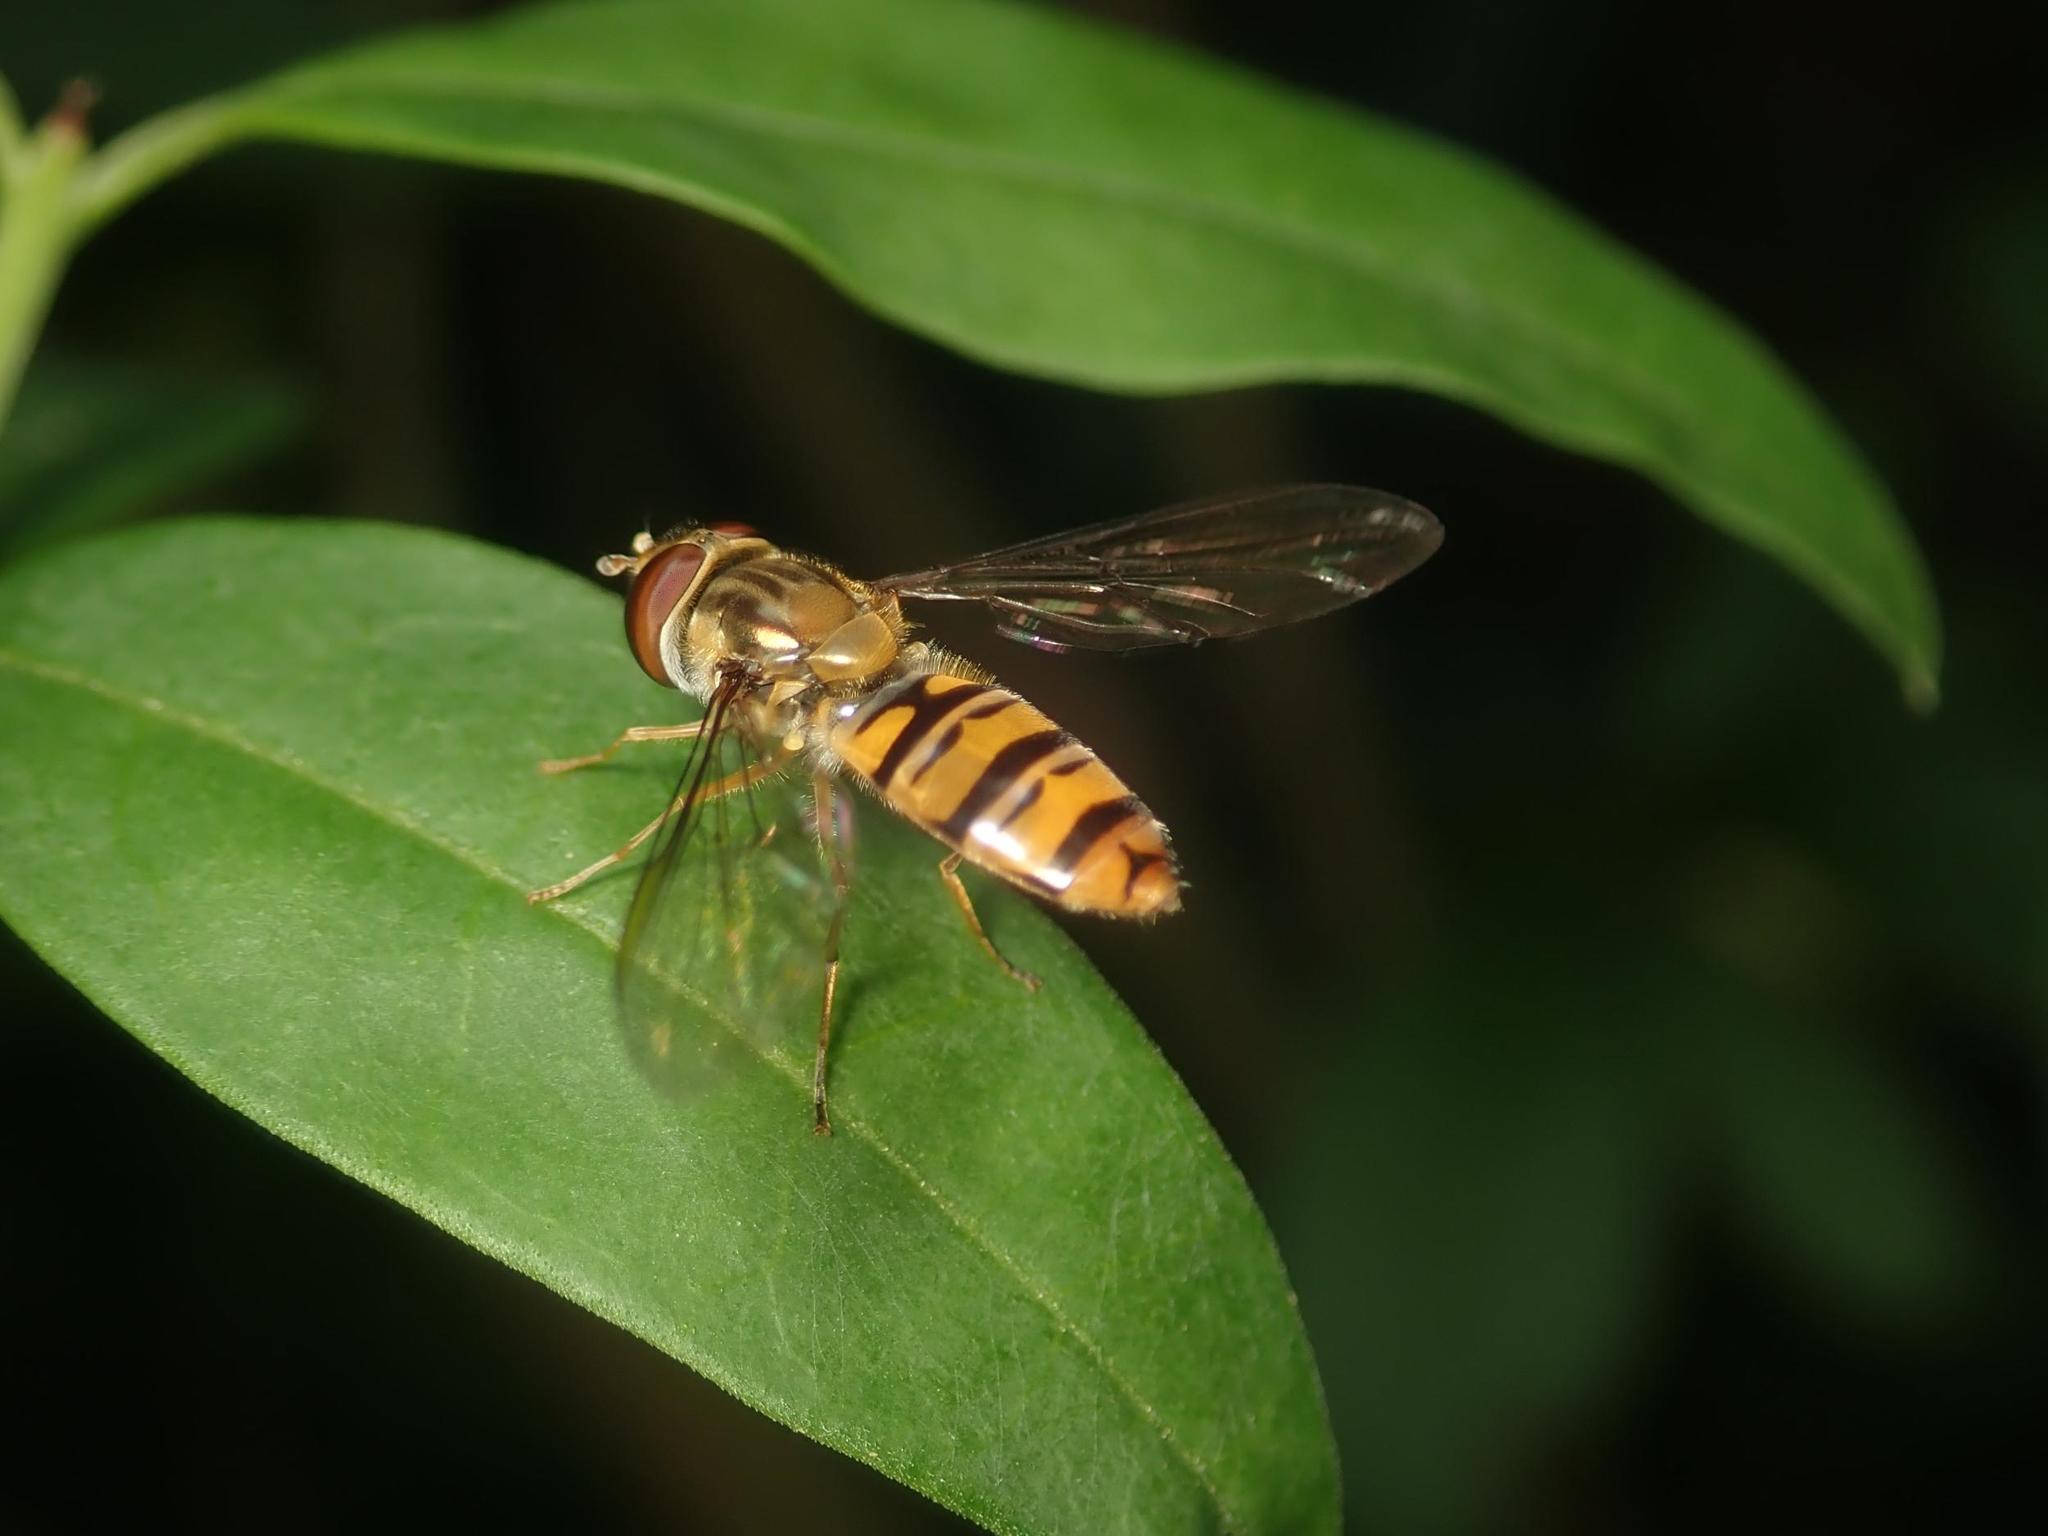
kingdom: Animalia
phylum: Arthropoda
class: Insecta
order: Diptera
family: Syrphidae
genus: Episyrphus
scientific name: Episyrphus balteatus
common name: Marmalade hoverfly
